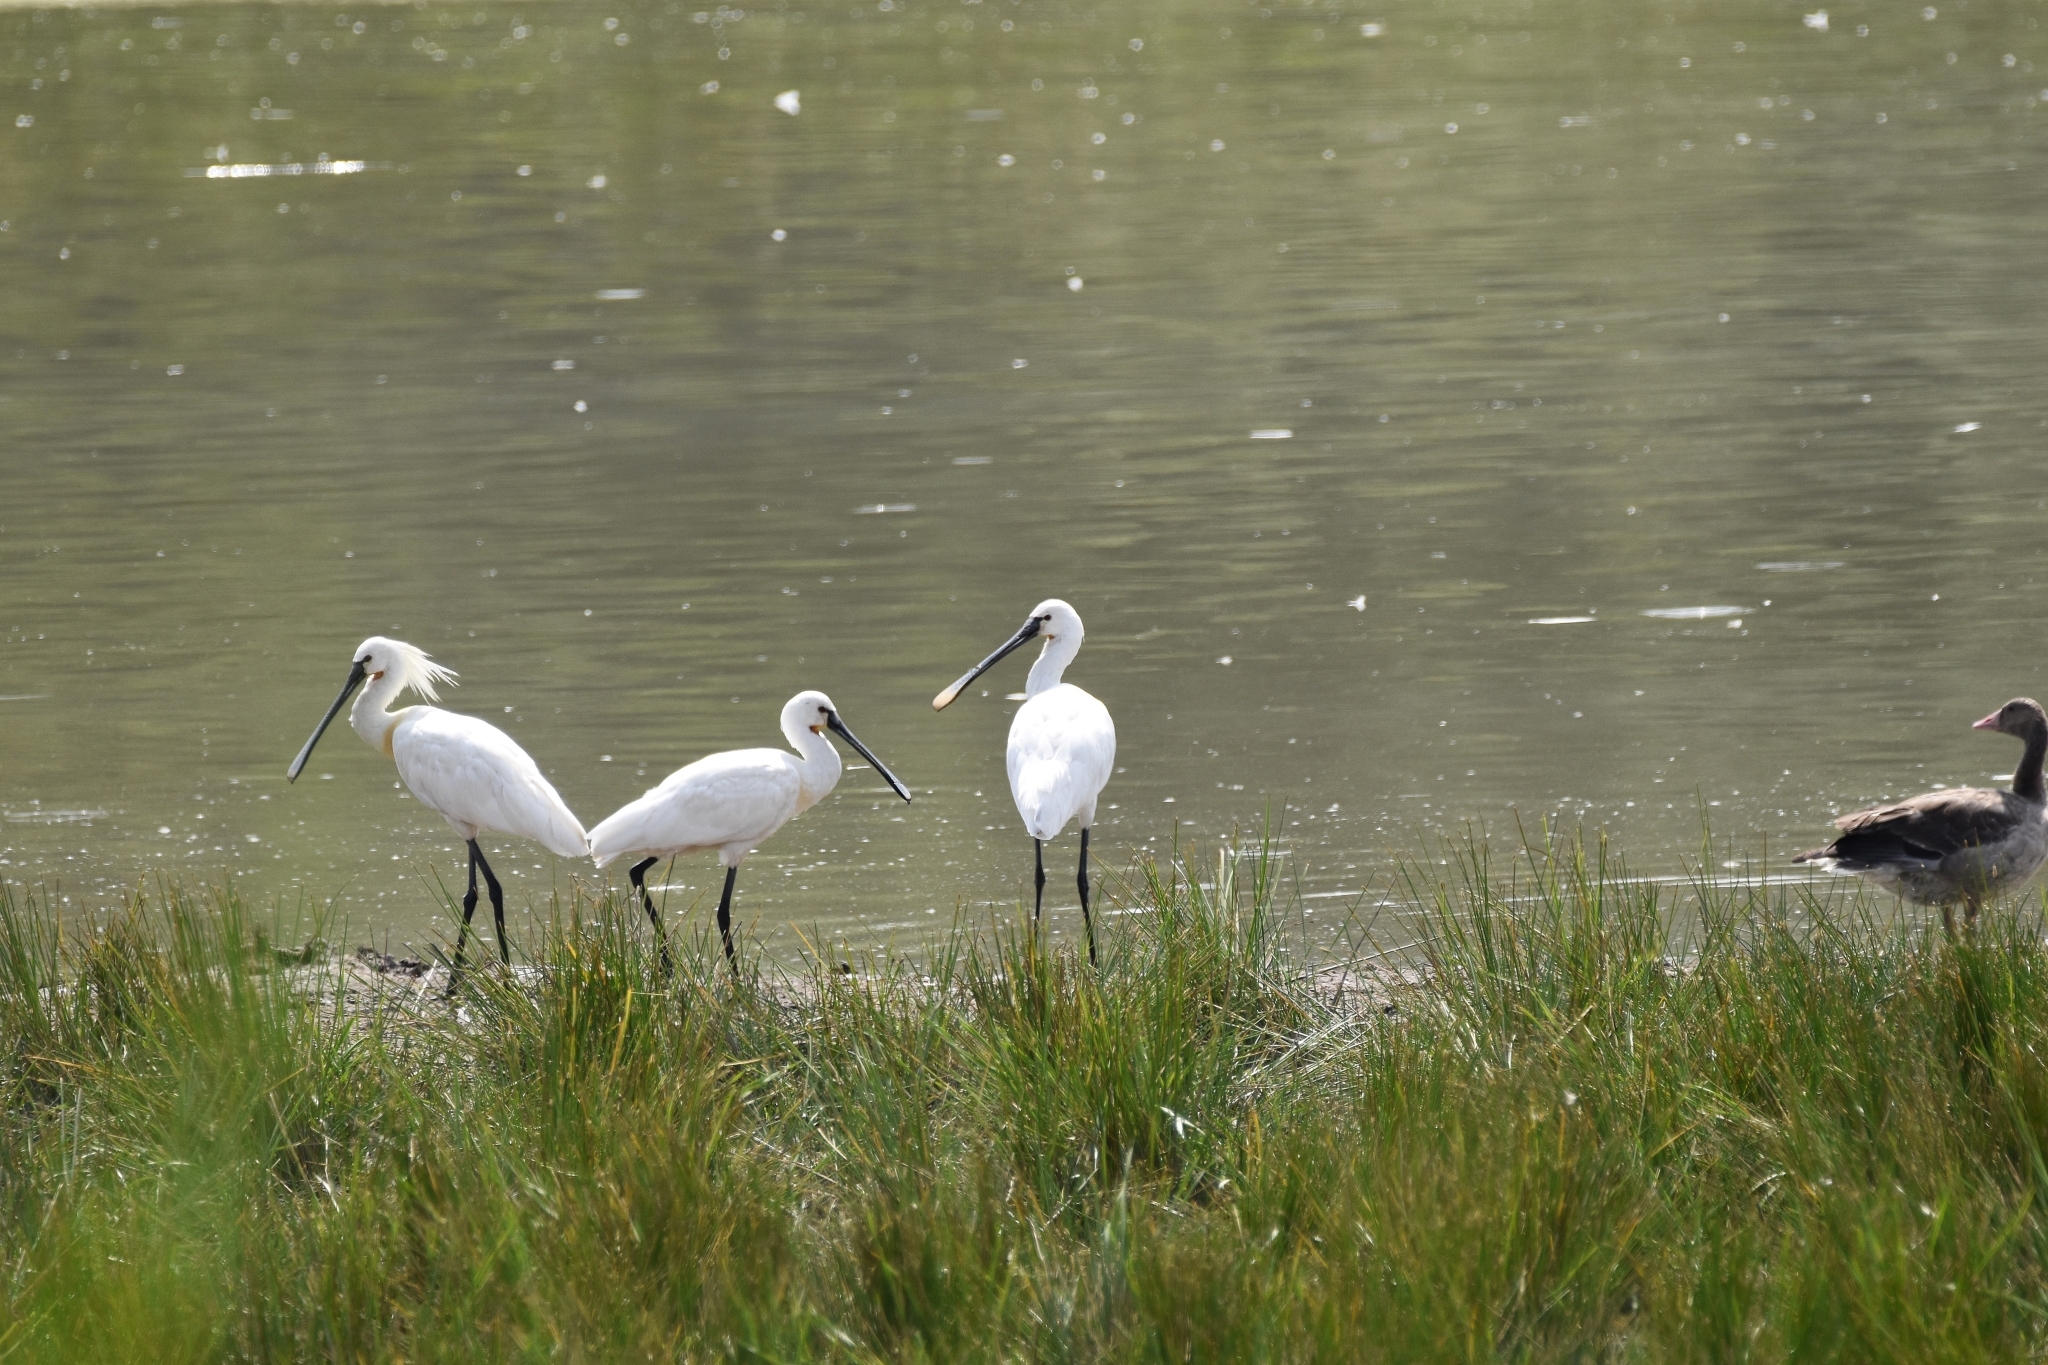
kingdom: Animalia
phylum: Chordata
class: Aves
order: Pelecaniformes
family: Threskiornithidae
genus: Platalea
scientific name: Platalea leucorodia
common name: Eurasian spoonbill
